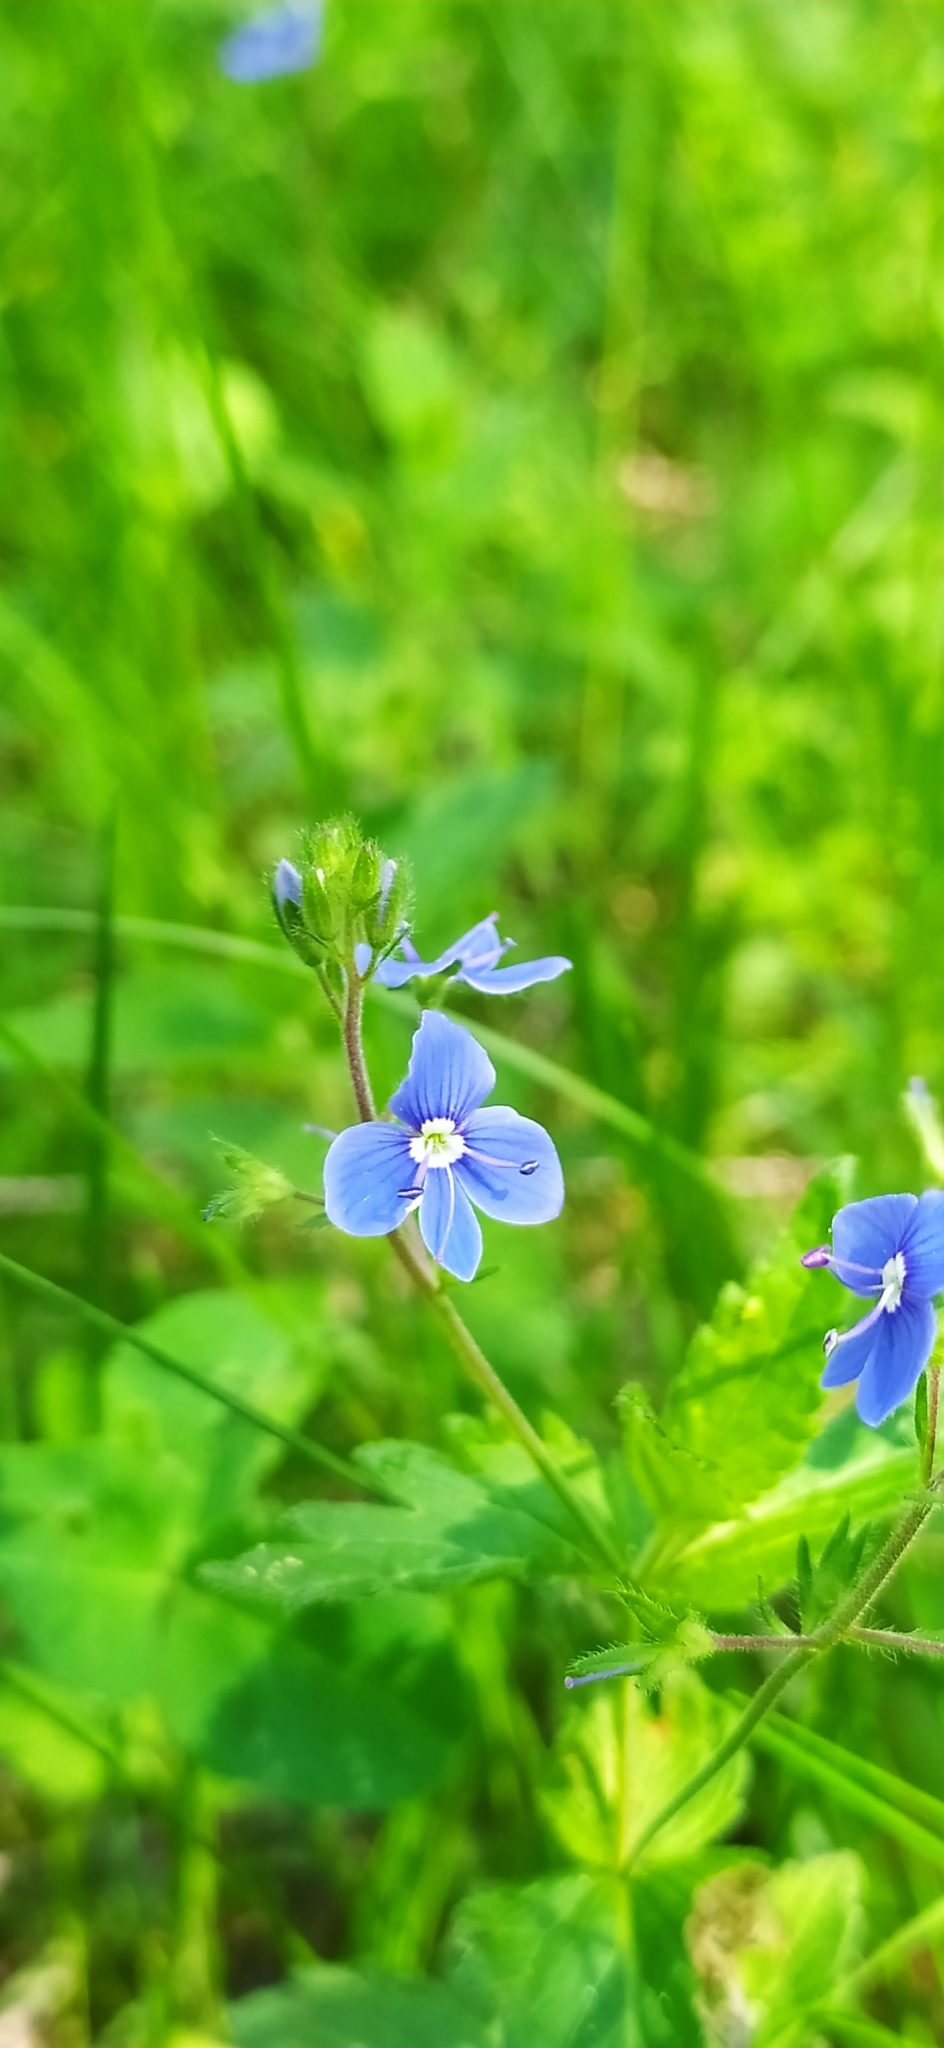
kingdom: Plantae
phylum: Tracheophyta
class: Magnoliopsida
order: Lamiales
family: Plantaginaceae
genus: Veronica
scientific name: Veronica chamaedrys
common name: Germander speedwell
